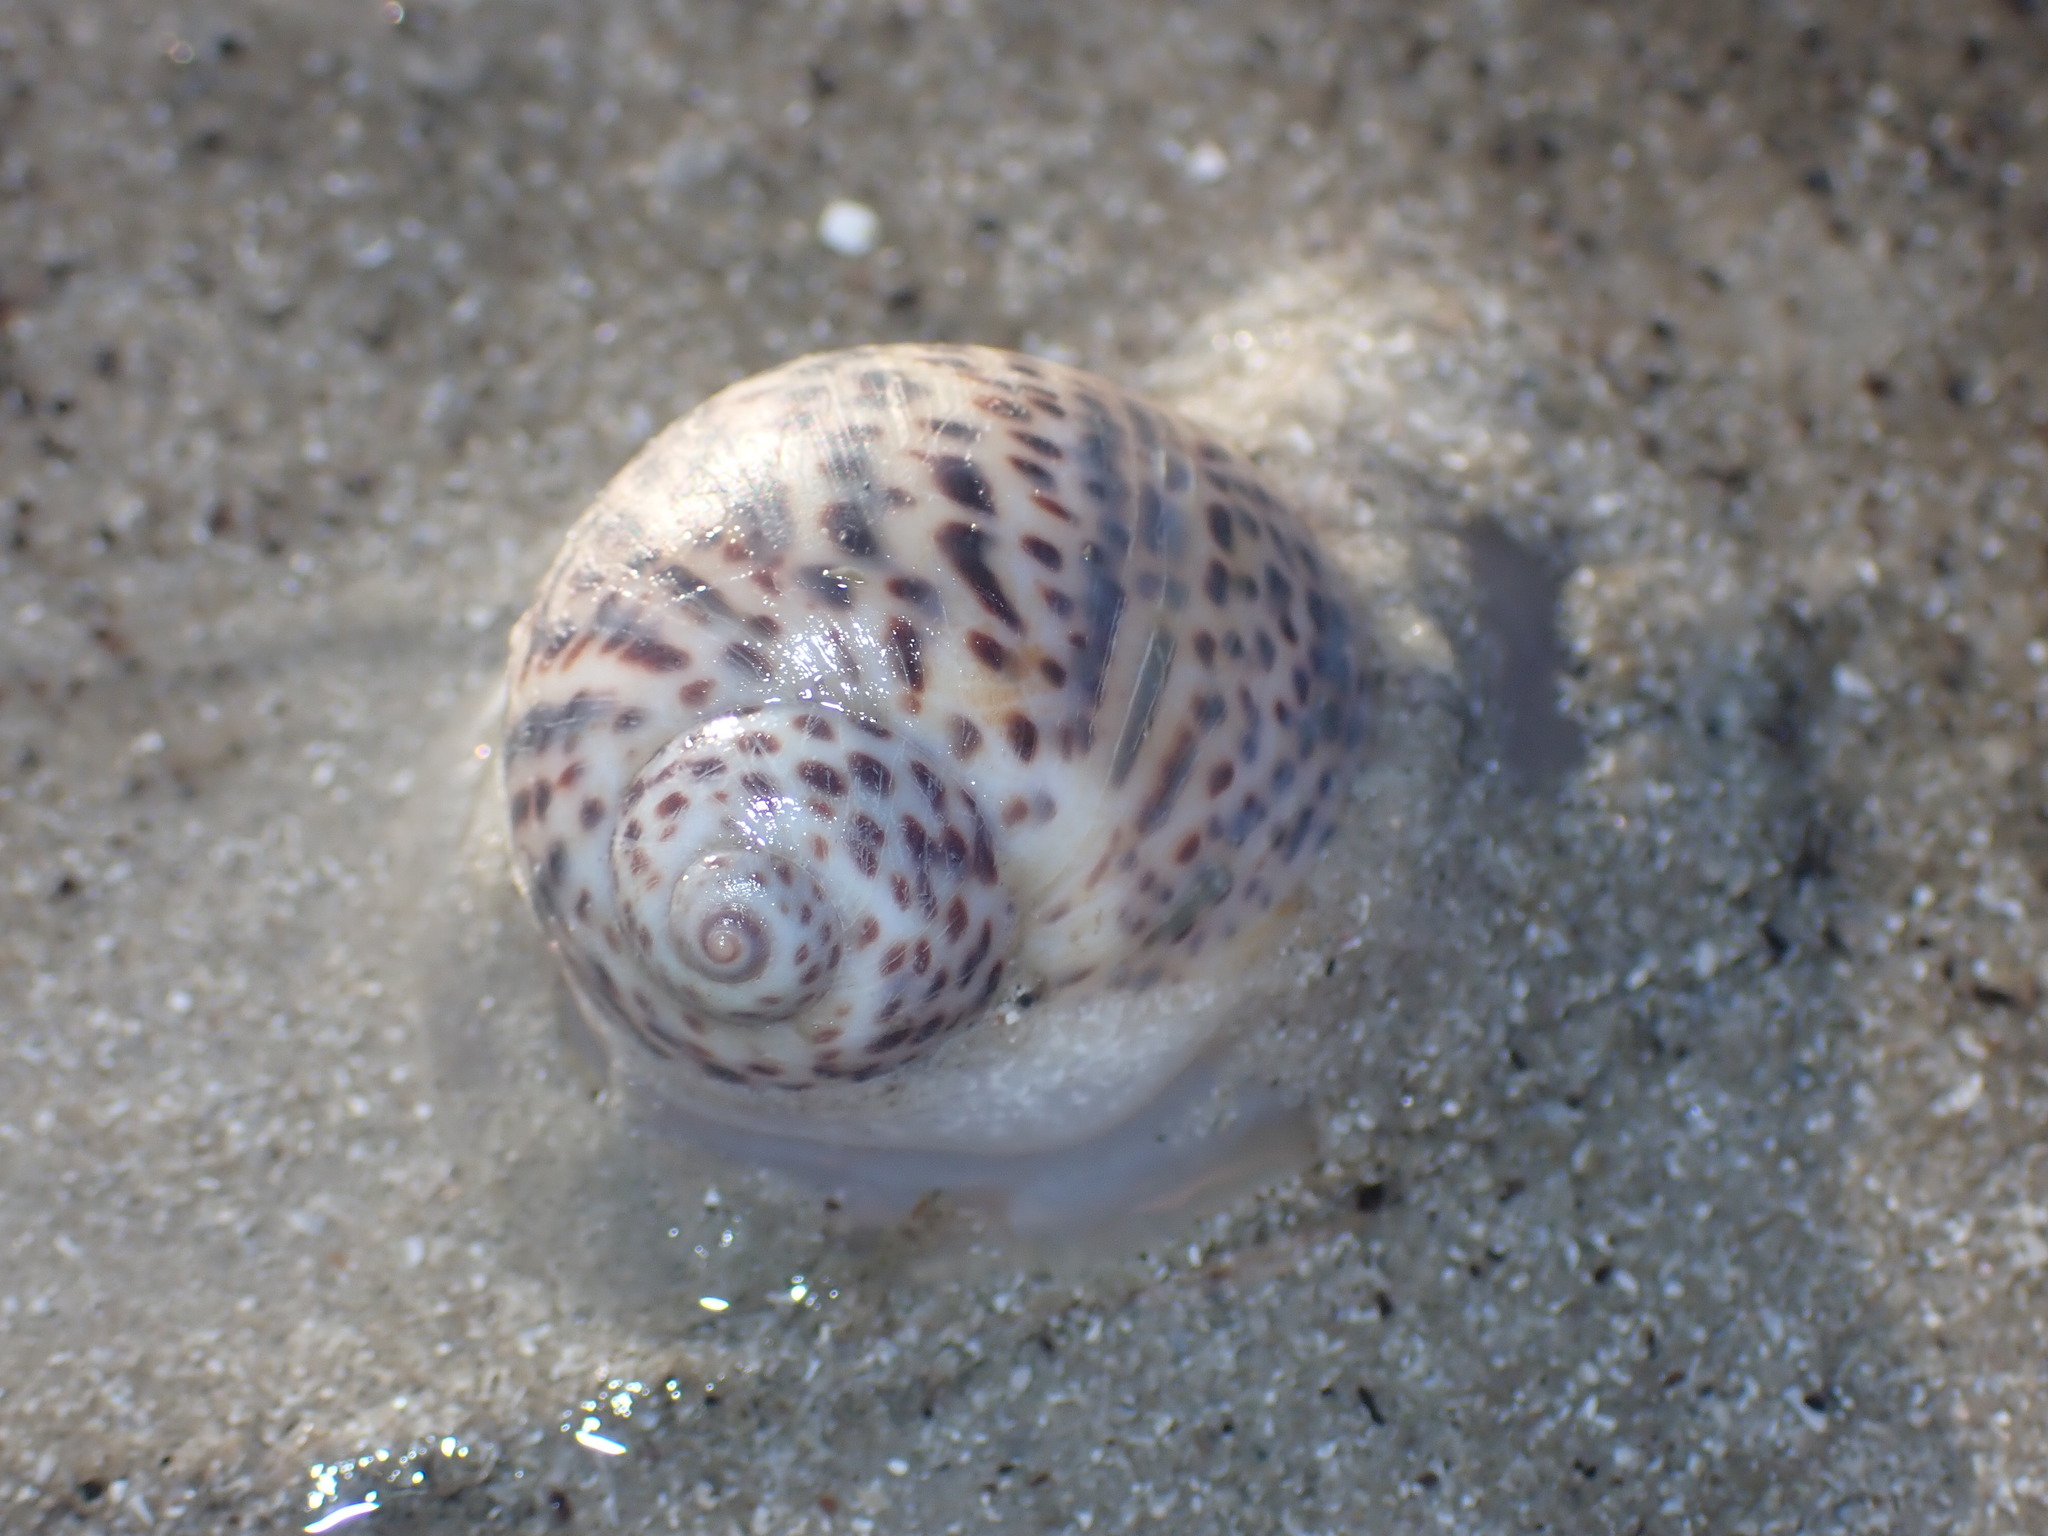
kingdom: Animalia
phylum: Mollusca
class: Gastropoda
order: Littorinimorpha
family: Naticidae
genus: Paratectonatica
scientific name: Paratectonatica tigrina
